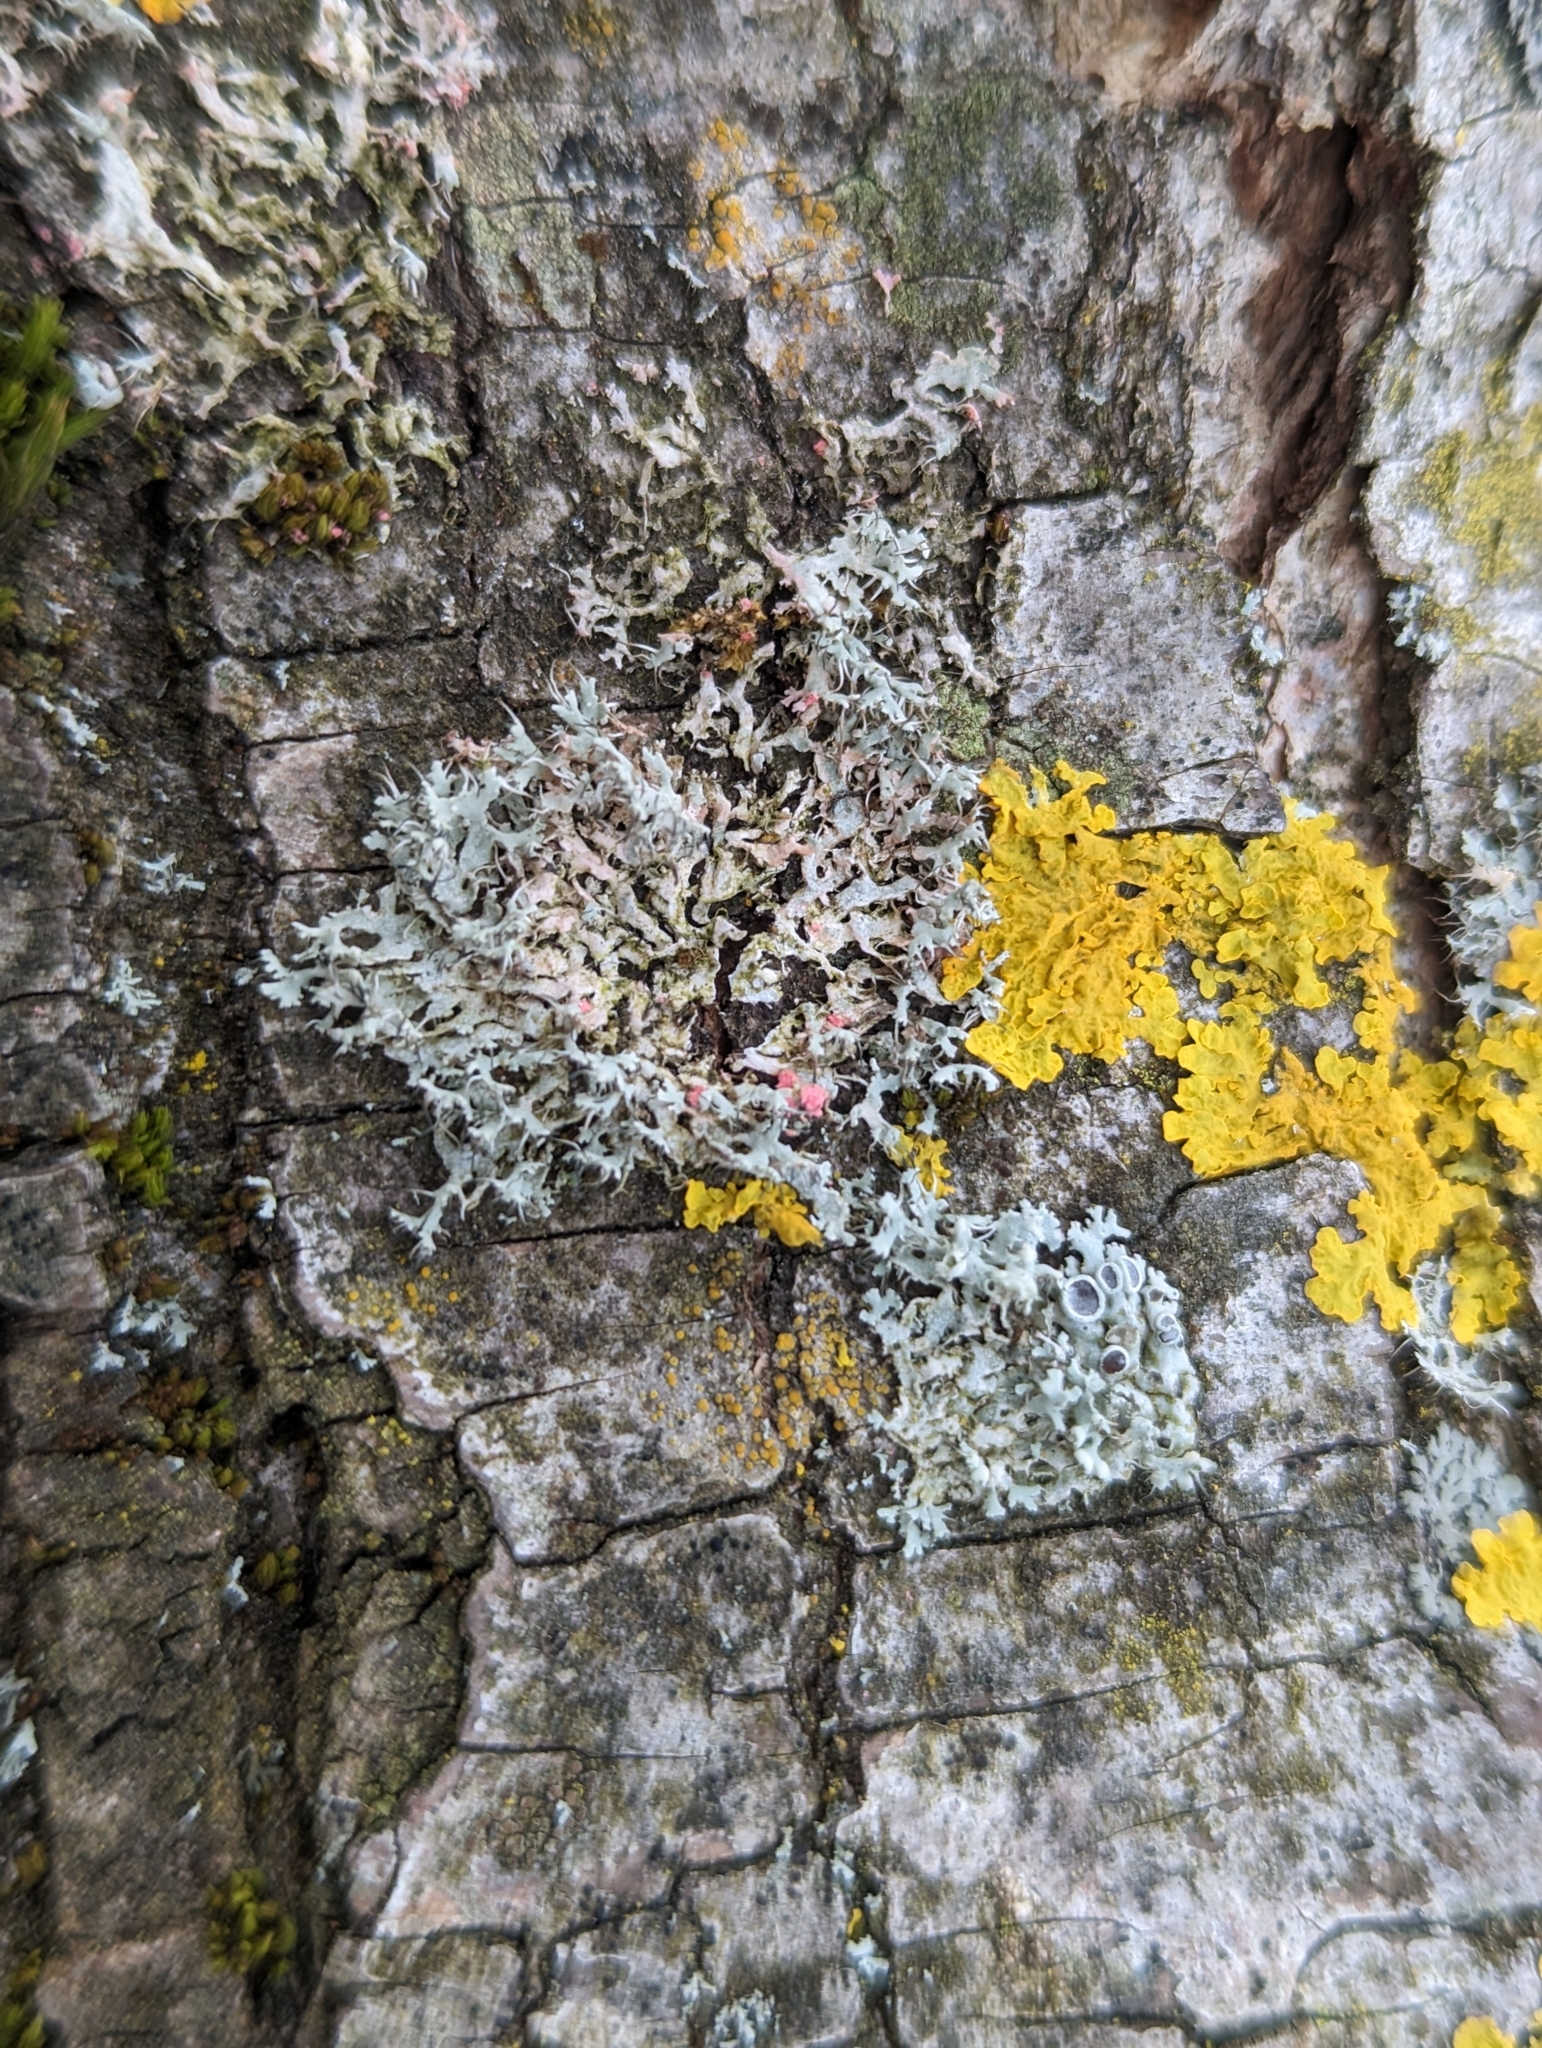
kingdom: Fungi
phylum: Ascomycota
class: Sordariomycetes
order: Hypocreales
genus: Illosporiopsis
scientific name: Illosporiopsis christiansenii
